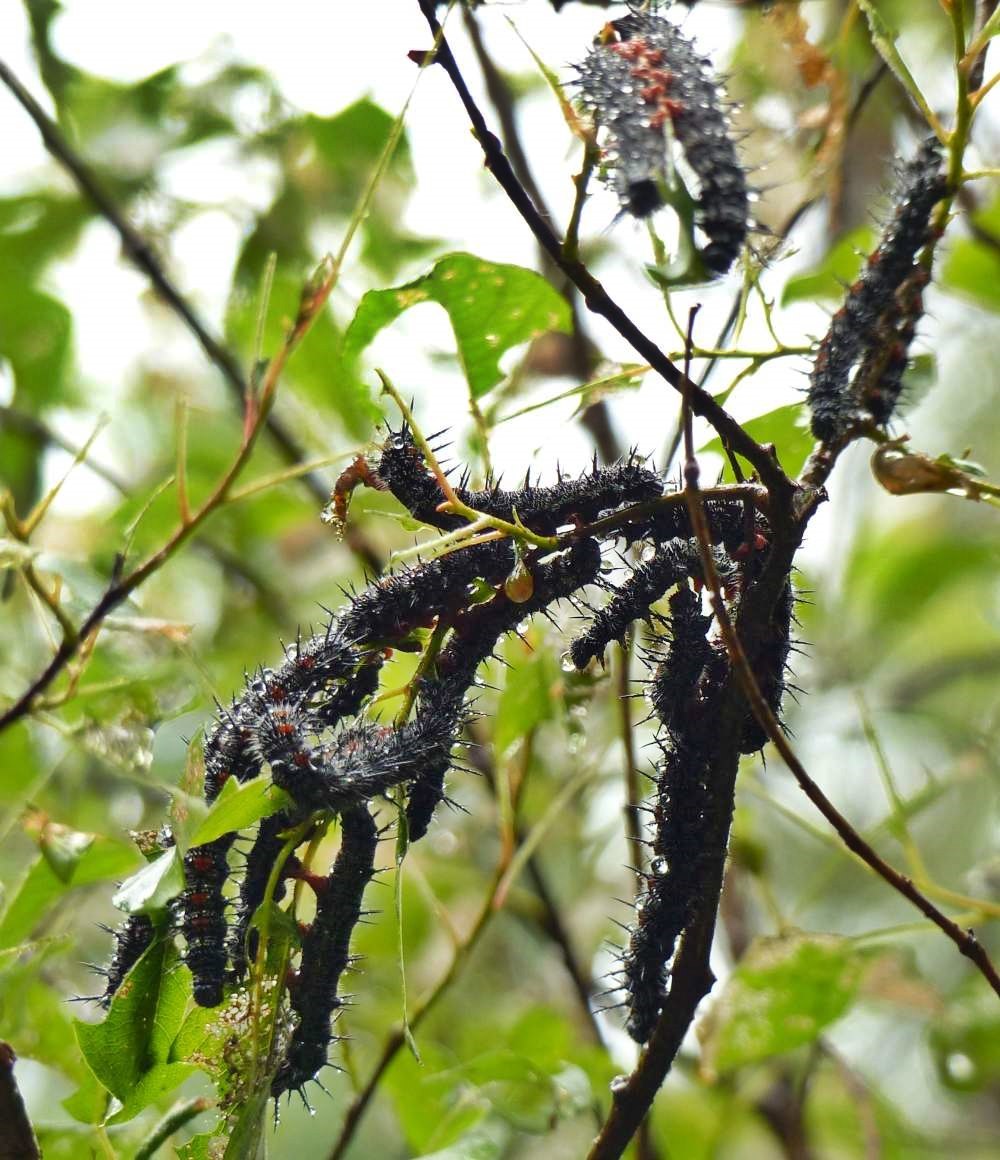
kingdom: Animalia
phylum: Arthropoda
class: Insecta
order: Lepidoptera
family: Nymphalidae
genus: Nymphalis
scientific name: Nymphalis antiopa
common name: Camberwell beauty
